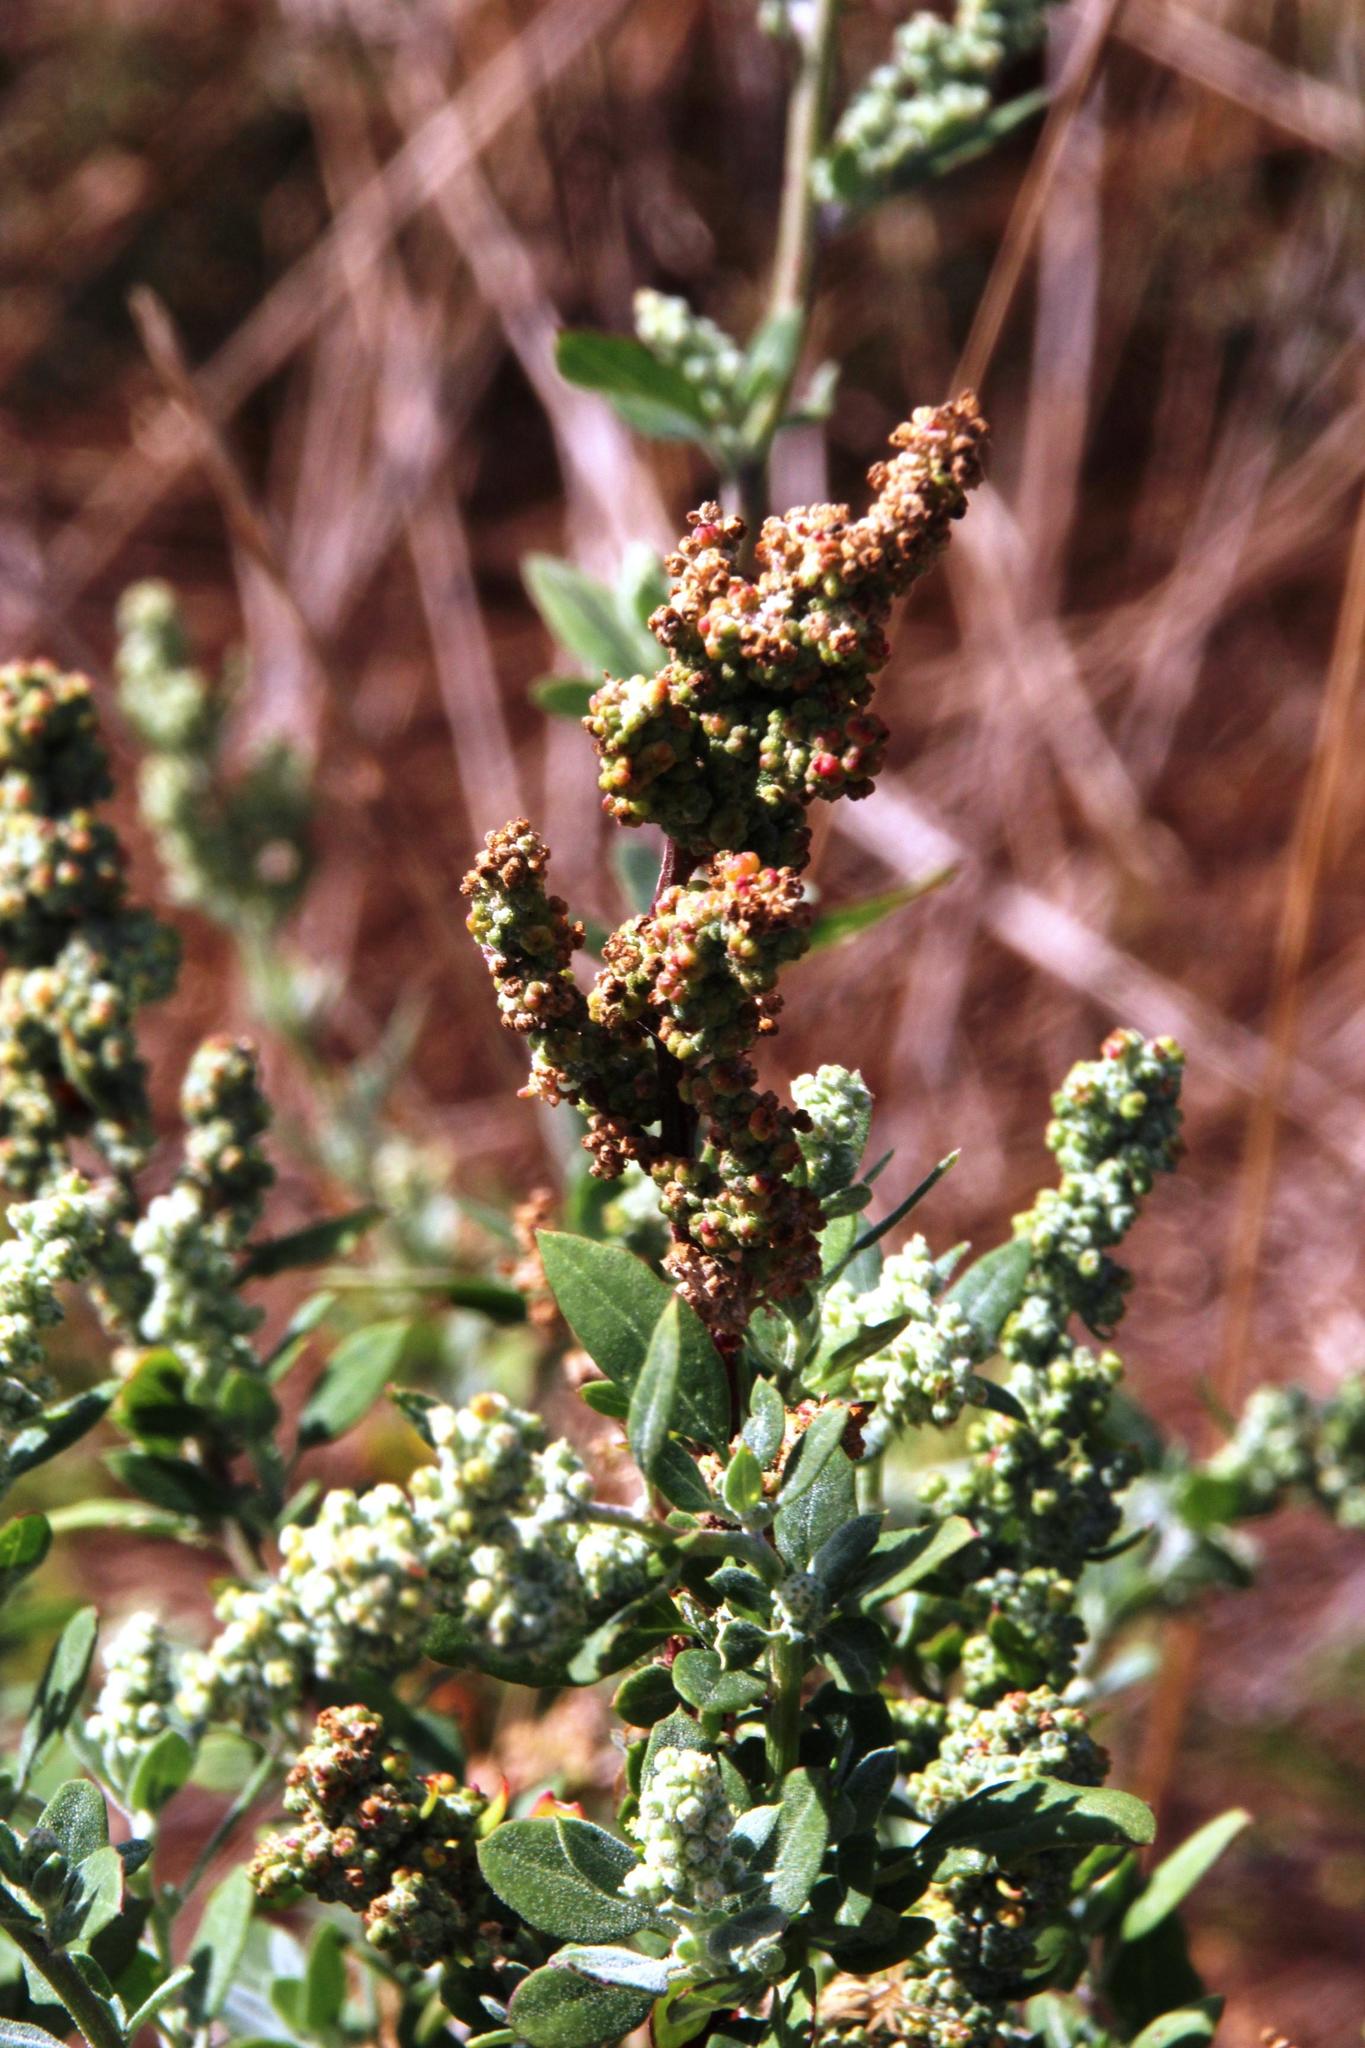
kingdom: Plantae
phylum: Tracheophyta
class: Magnoliopsida
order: Caryophyllales
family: Amaranthaceae
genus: Chenopodium
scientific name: Chenopodium album
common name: Fat-hen
